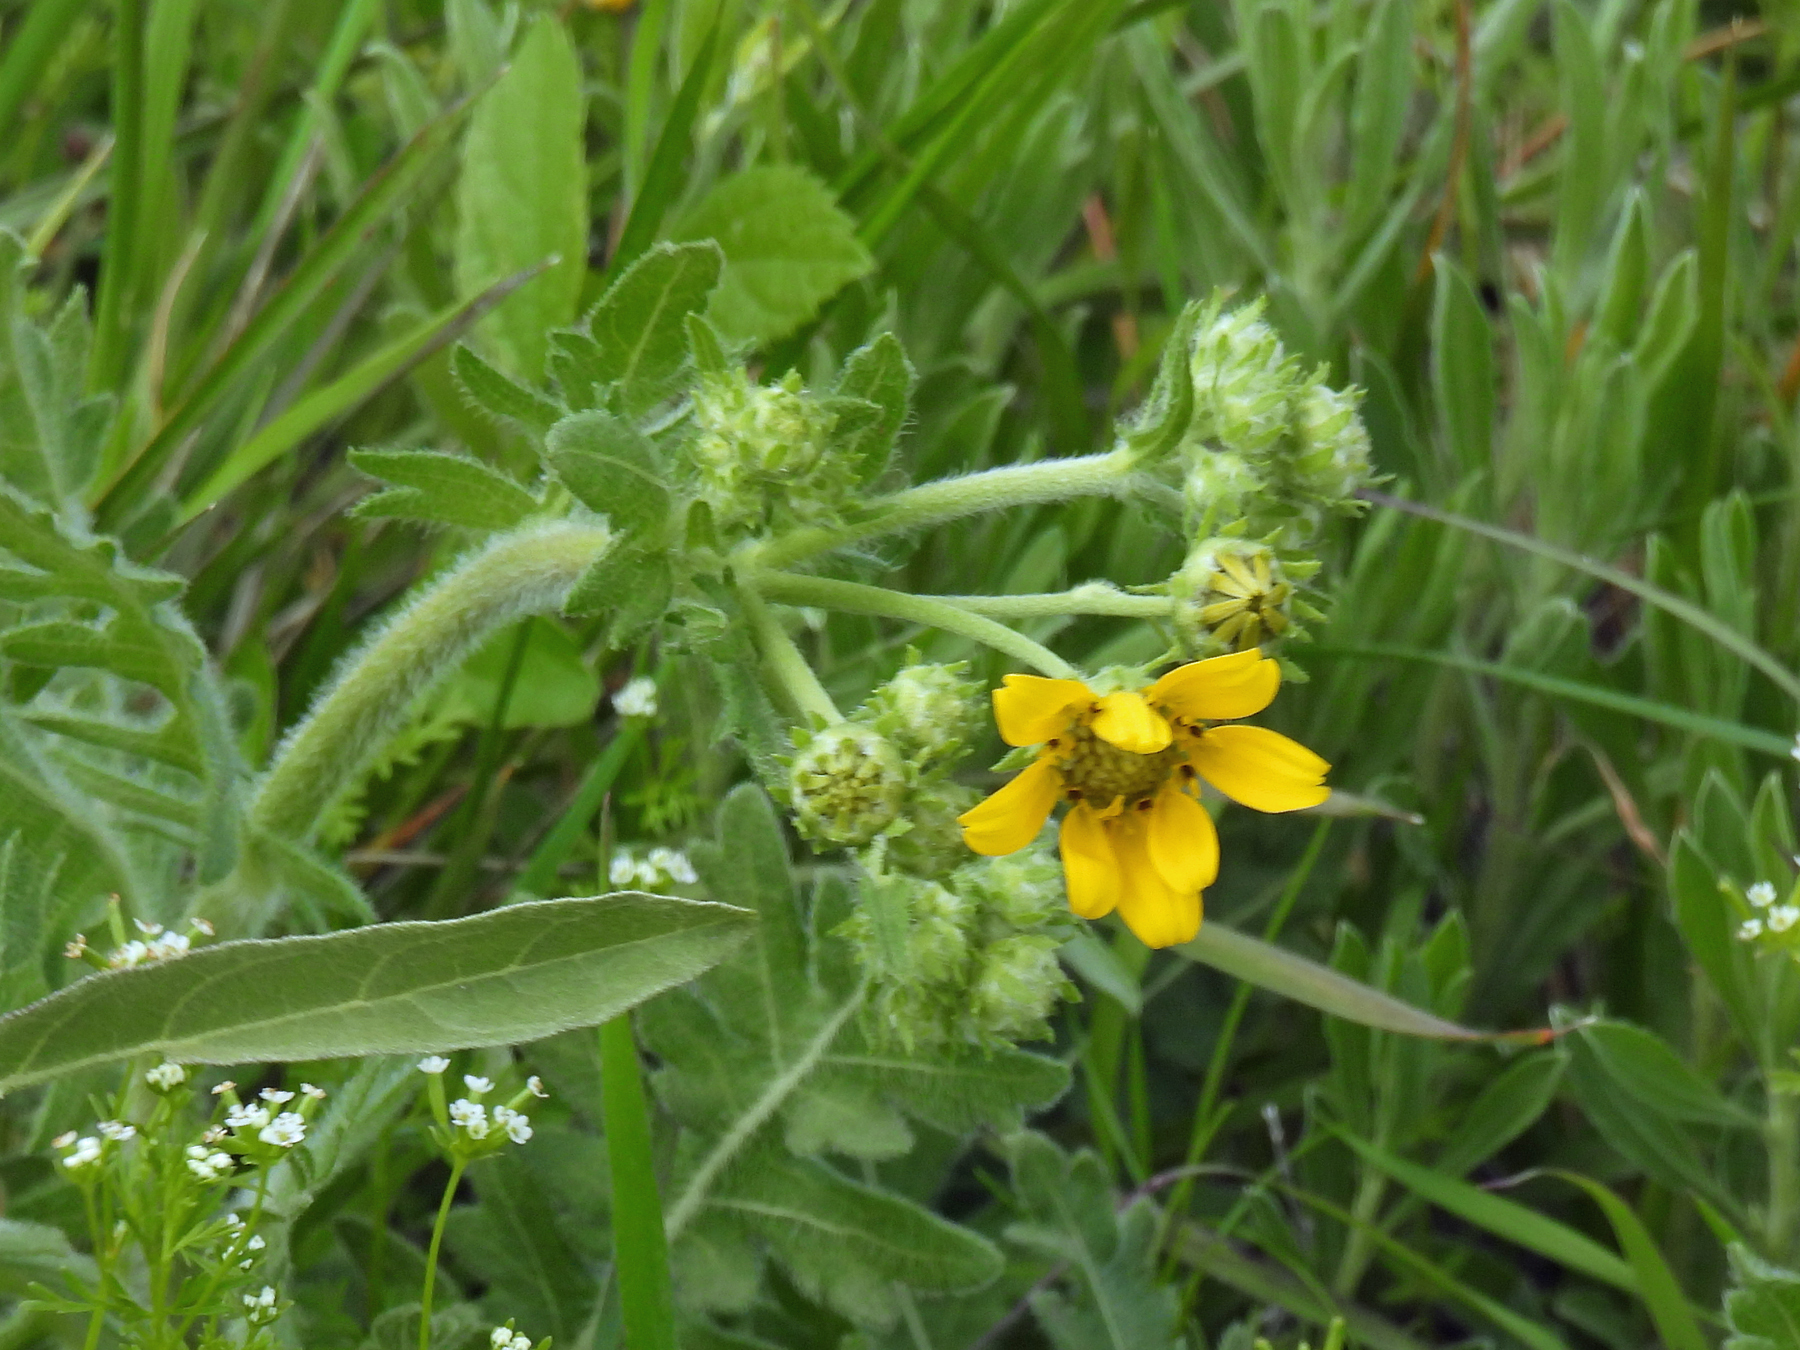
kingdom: Plantae
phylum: Tracheophyta
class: Magnoliopsida
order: Asterales
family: Asteraceae
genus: Engelmannia
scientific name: Engelmannia peristenia
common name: Engelmann's daisy
